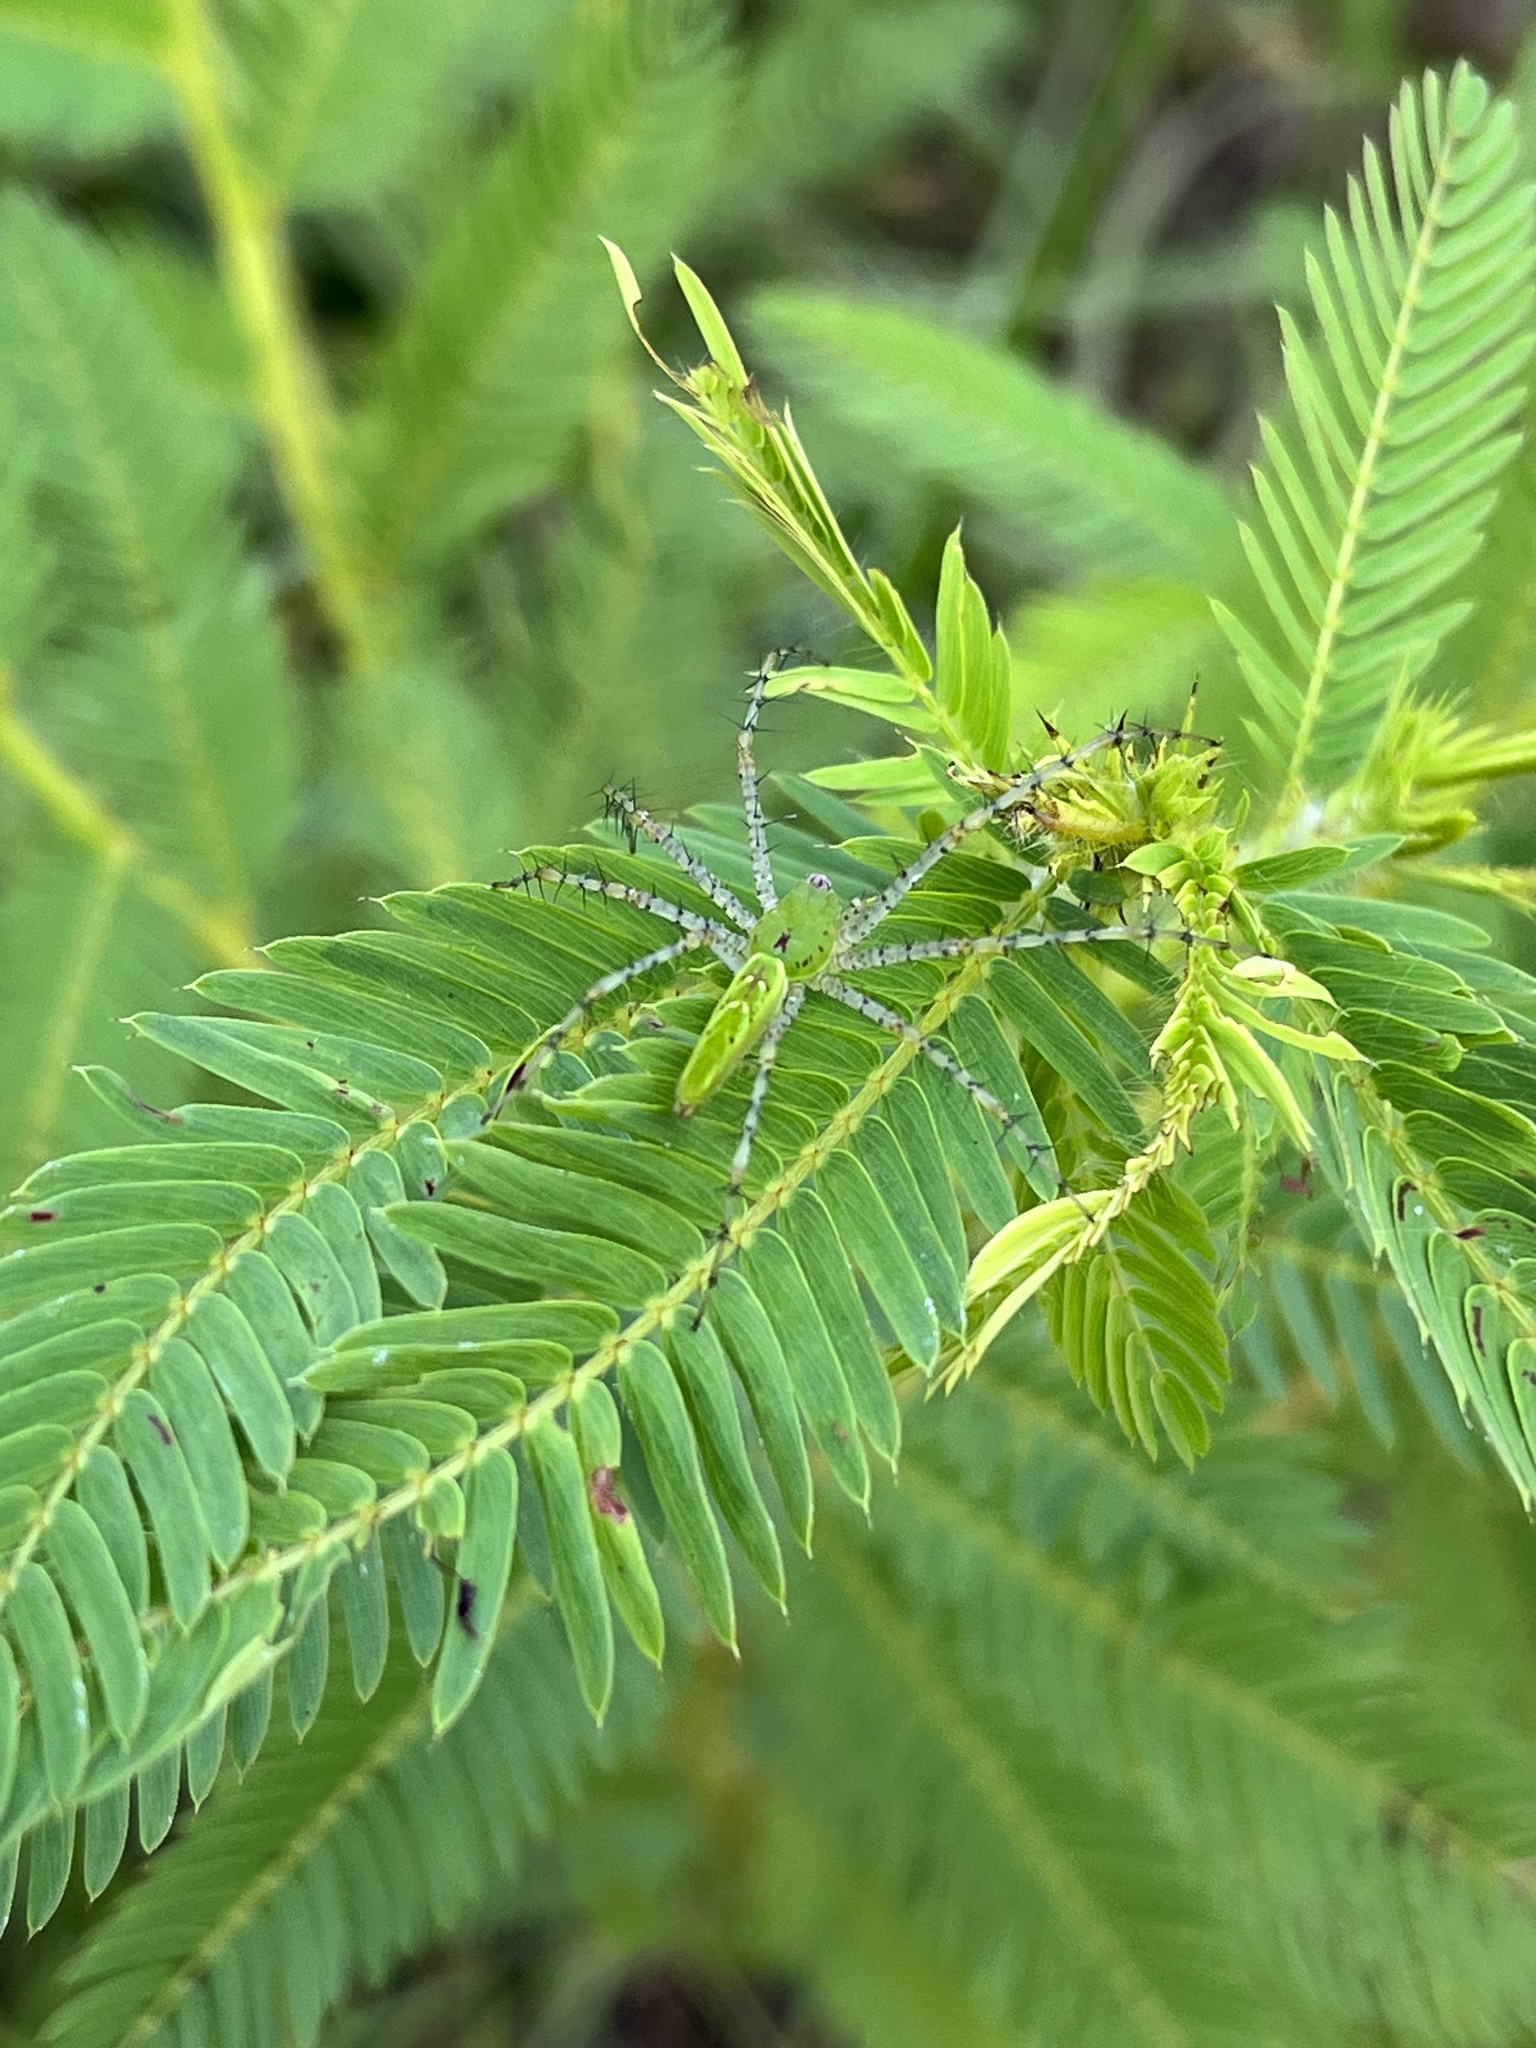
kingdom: Animalia
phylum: Arthropoda
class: Arachnida
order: Araneae
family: Oxyopidae
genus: Peucetia
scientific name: Peucetia viridans
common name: Lynx spiders
